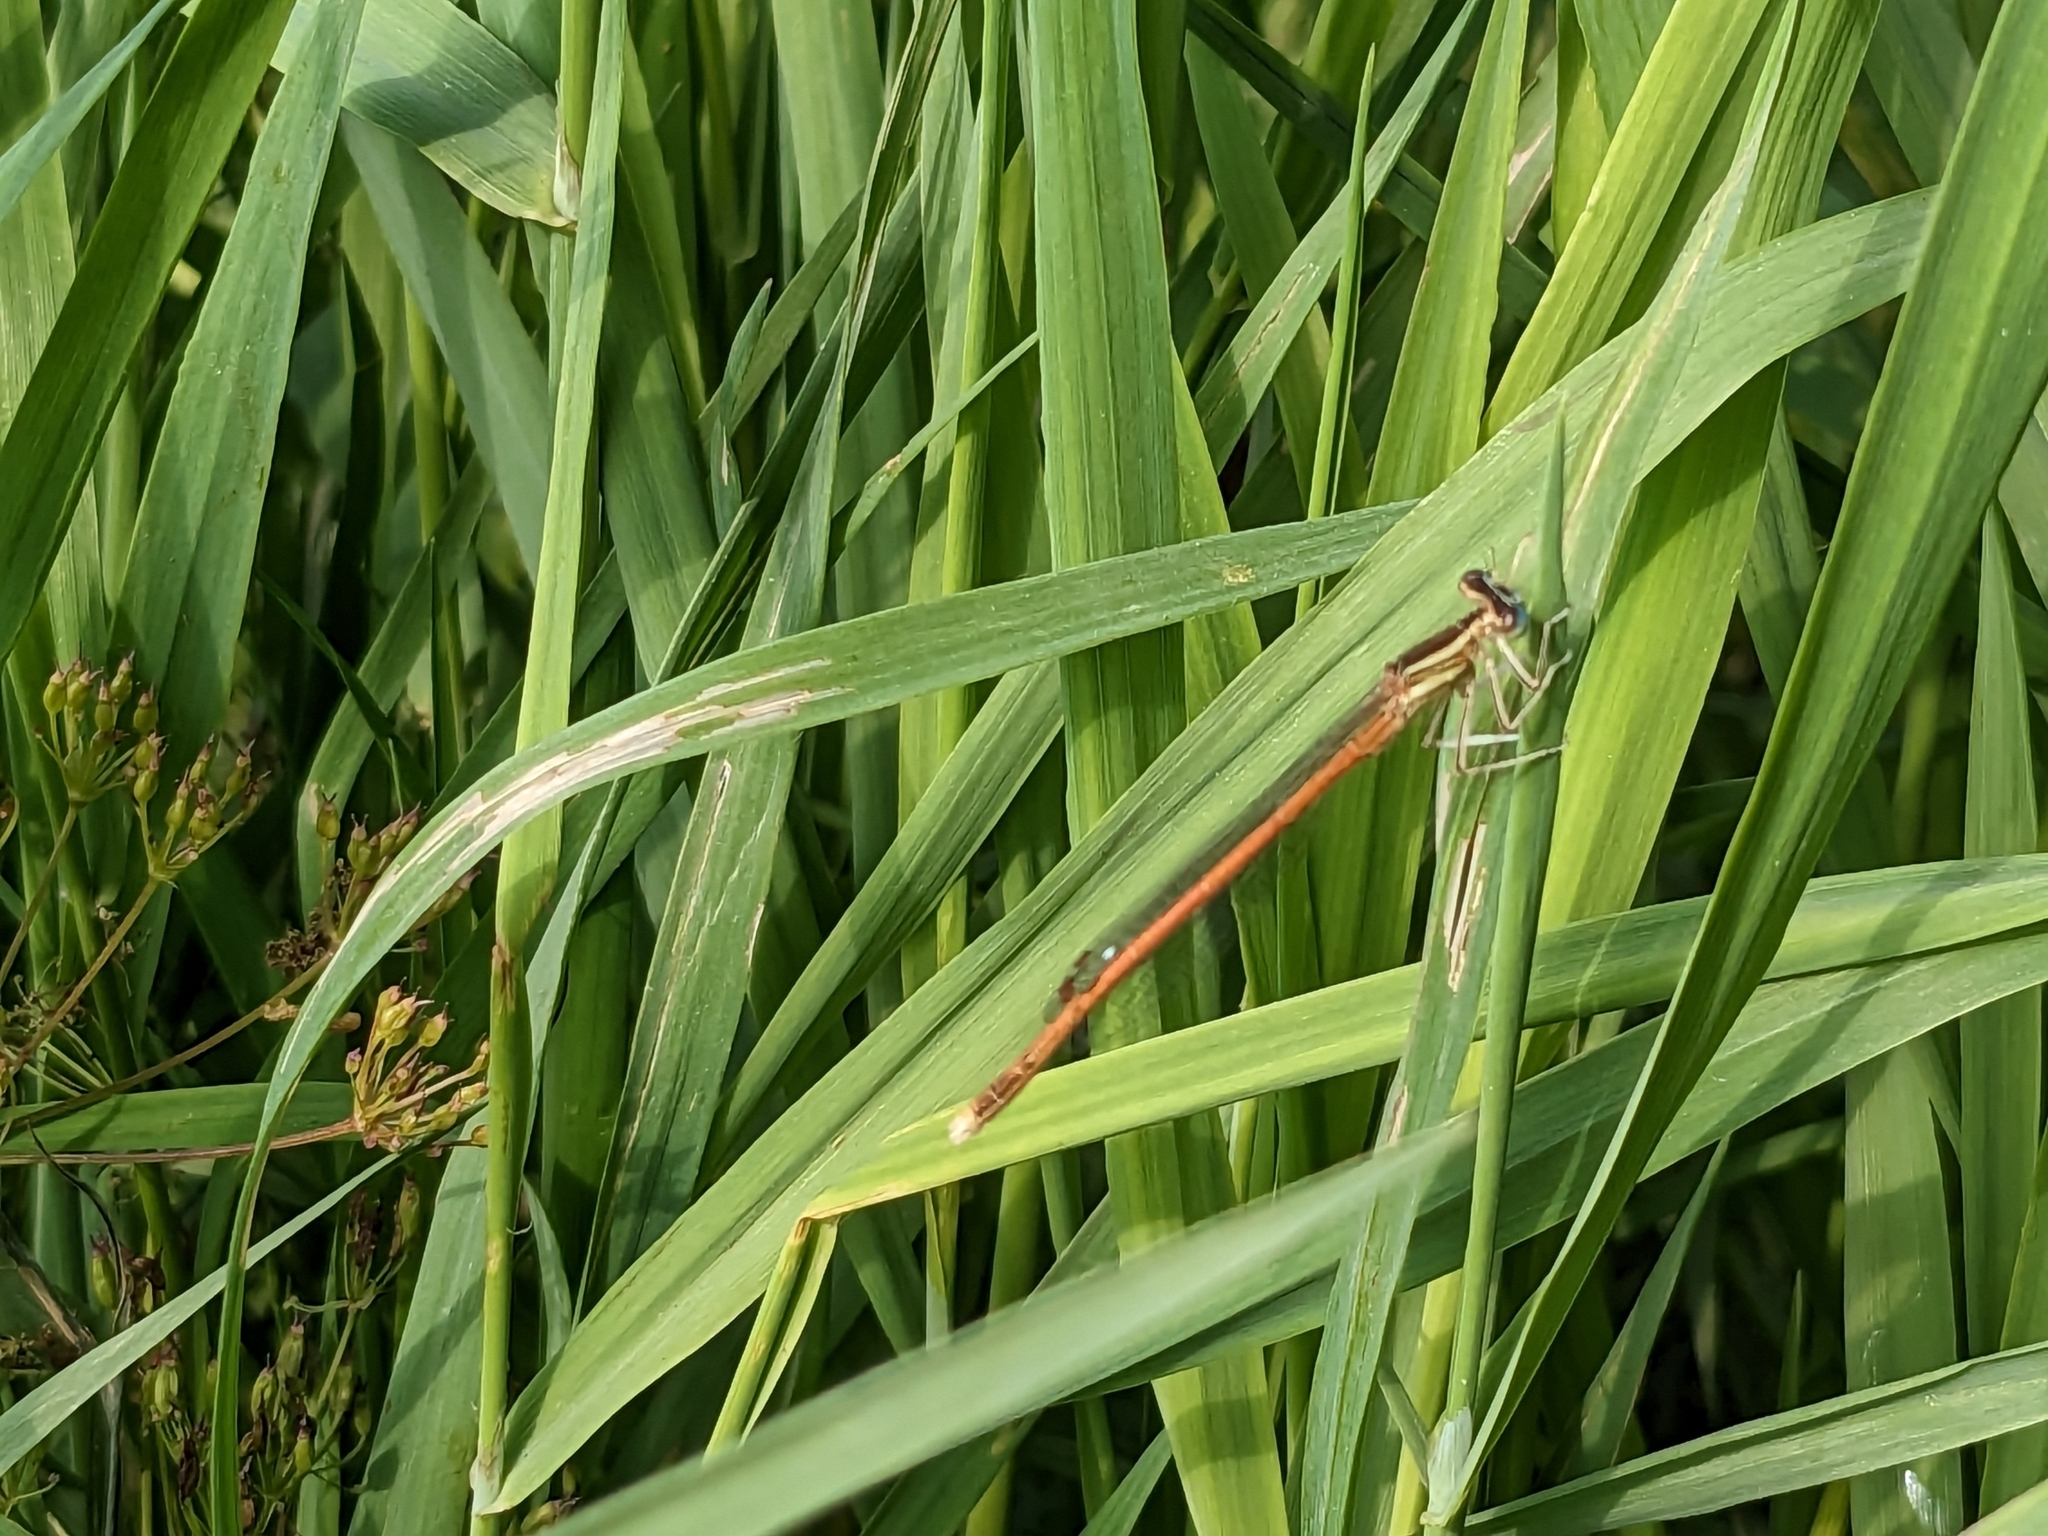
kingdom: Animalia
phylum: Arthropoda
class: Insecta
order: Odonata
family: Platycnemididae
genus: Platycnemis
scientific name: Platycnemis acutipennis
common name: Orange featherleg
